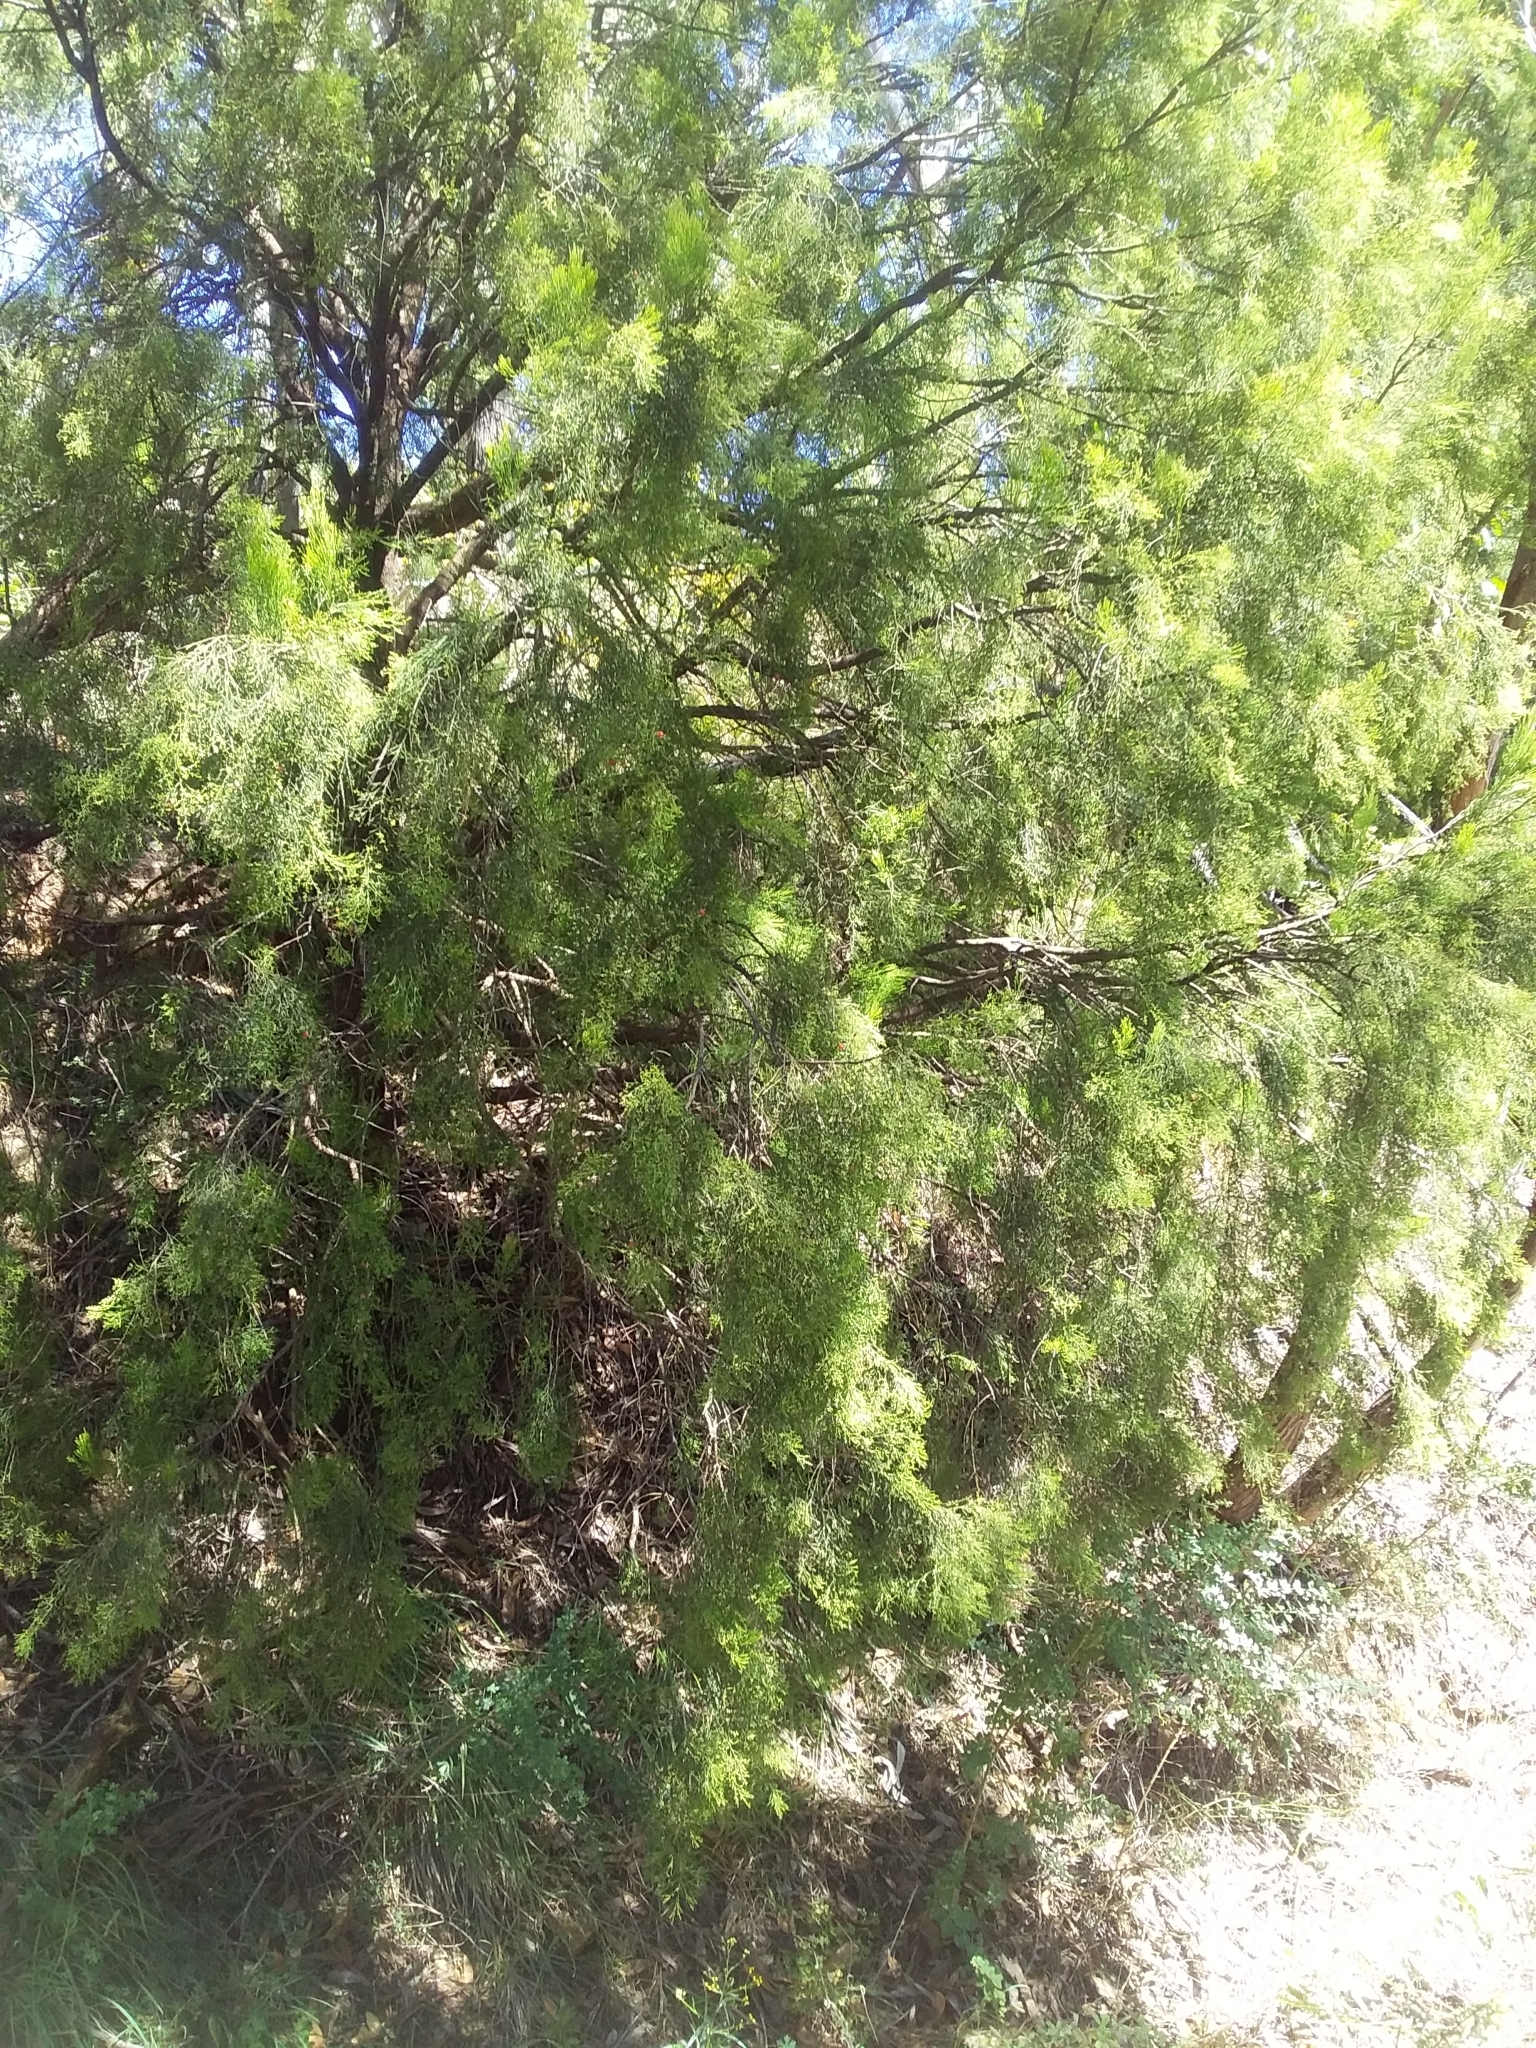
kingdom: Plantae
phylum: Tracheophyta
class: Magnoliopsida
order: Santalales
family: Santalaceae
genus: Exocarpos
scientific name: Exocarpos cupressiformis
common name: Cherry ballart
